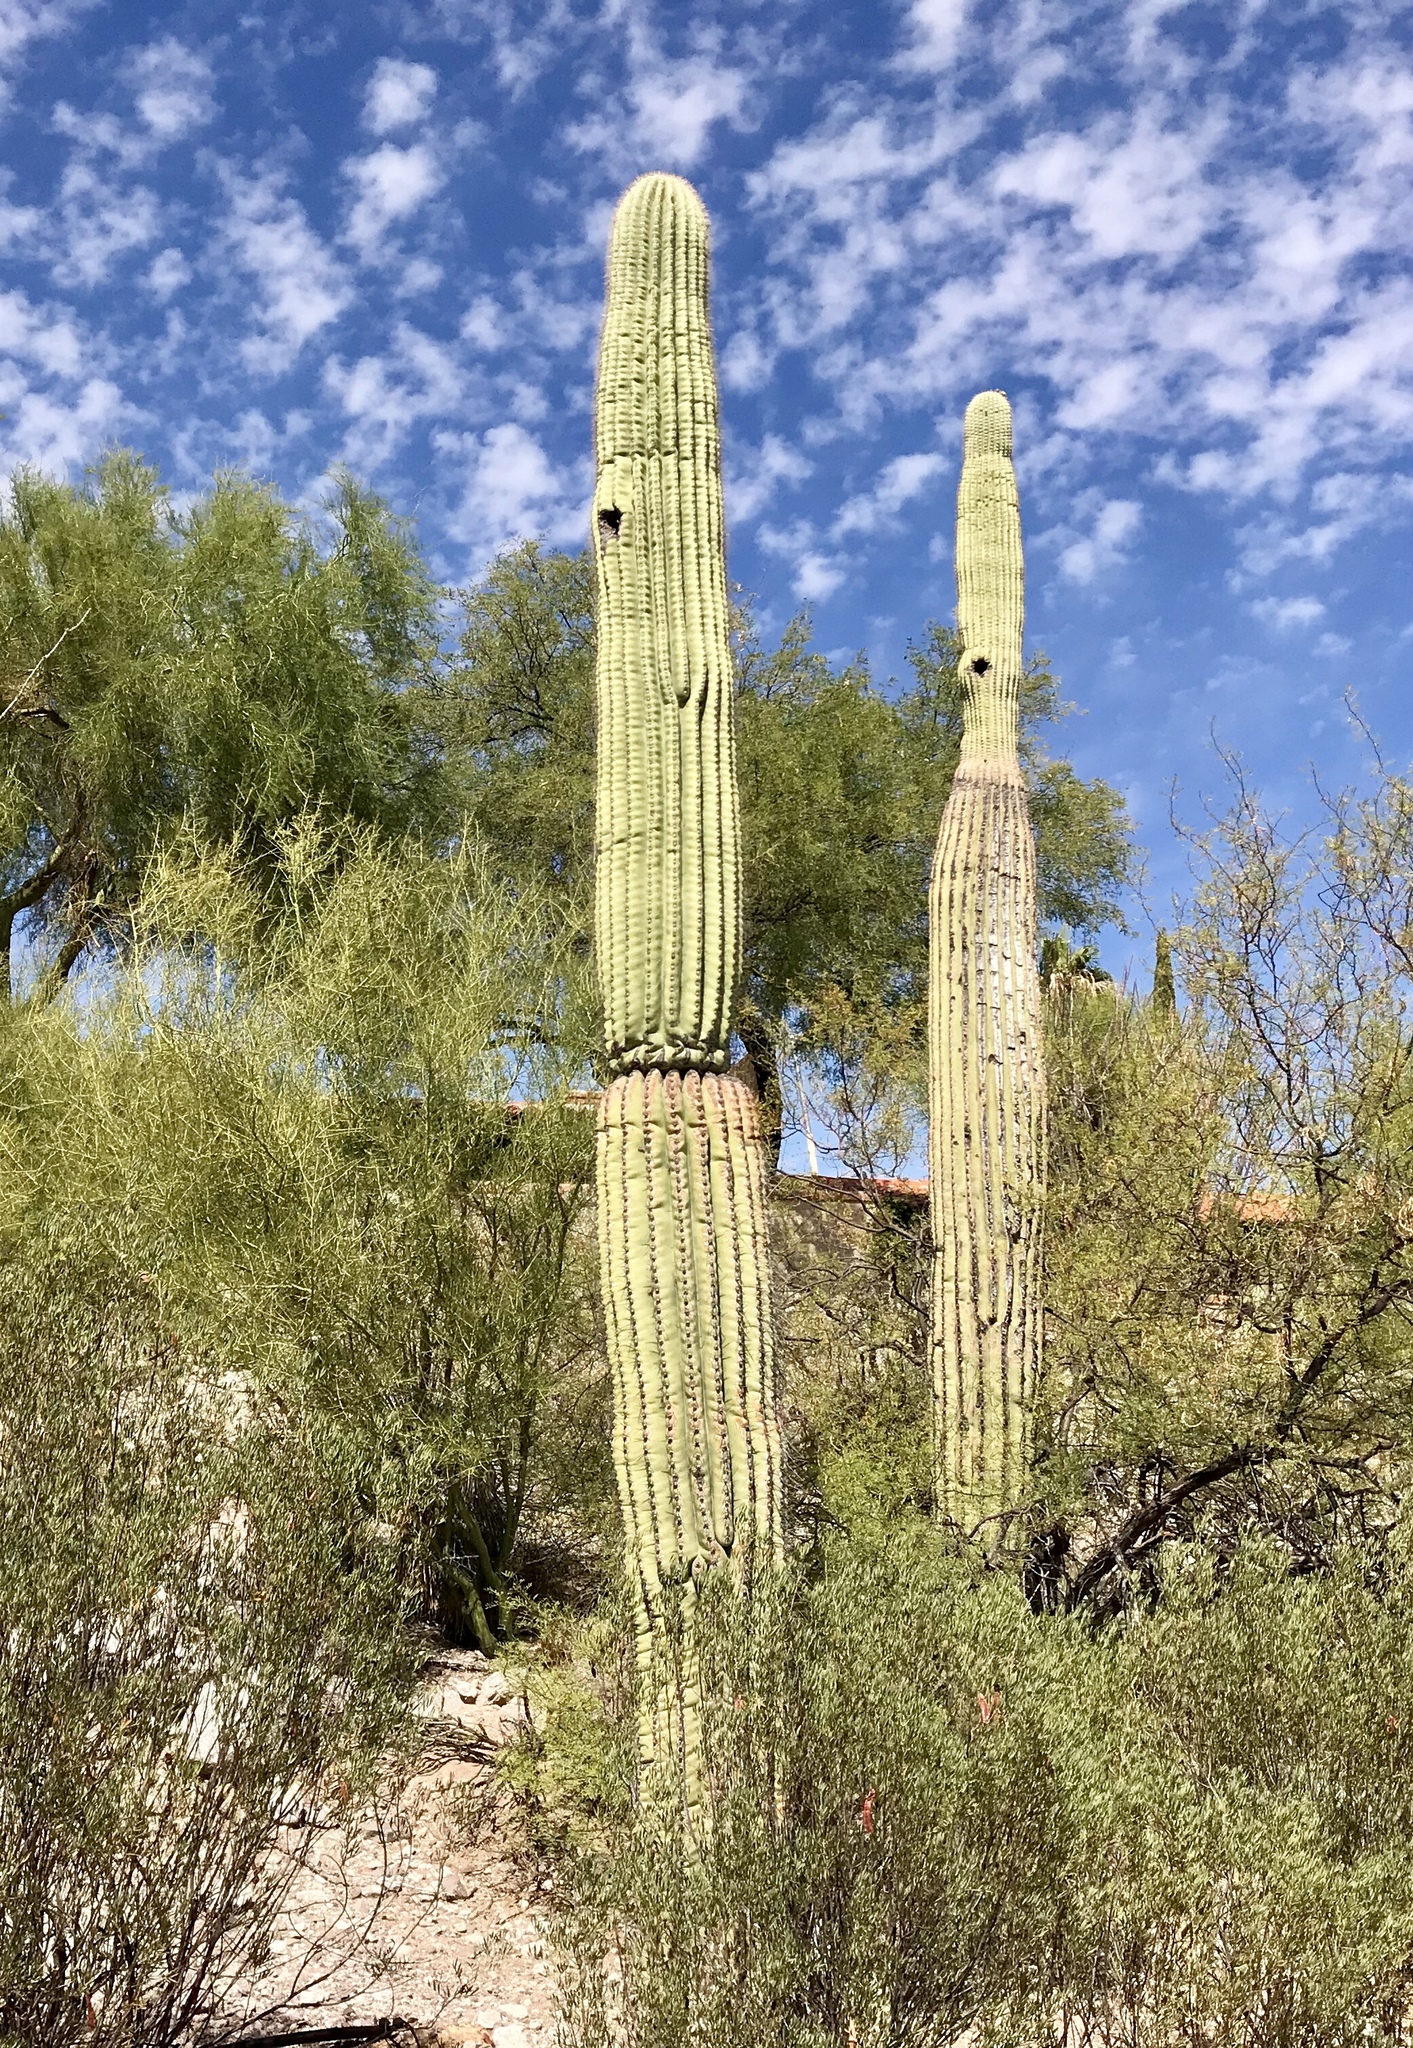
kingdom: Plantae
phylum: Tracheophyta
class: Magnoliopsida
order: Caryophyllales
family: Cactaceae
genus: Carnegiea
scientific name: Carnegiea gigantea
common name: Saguaro
